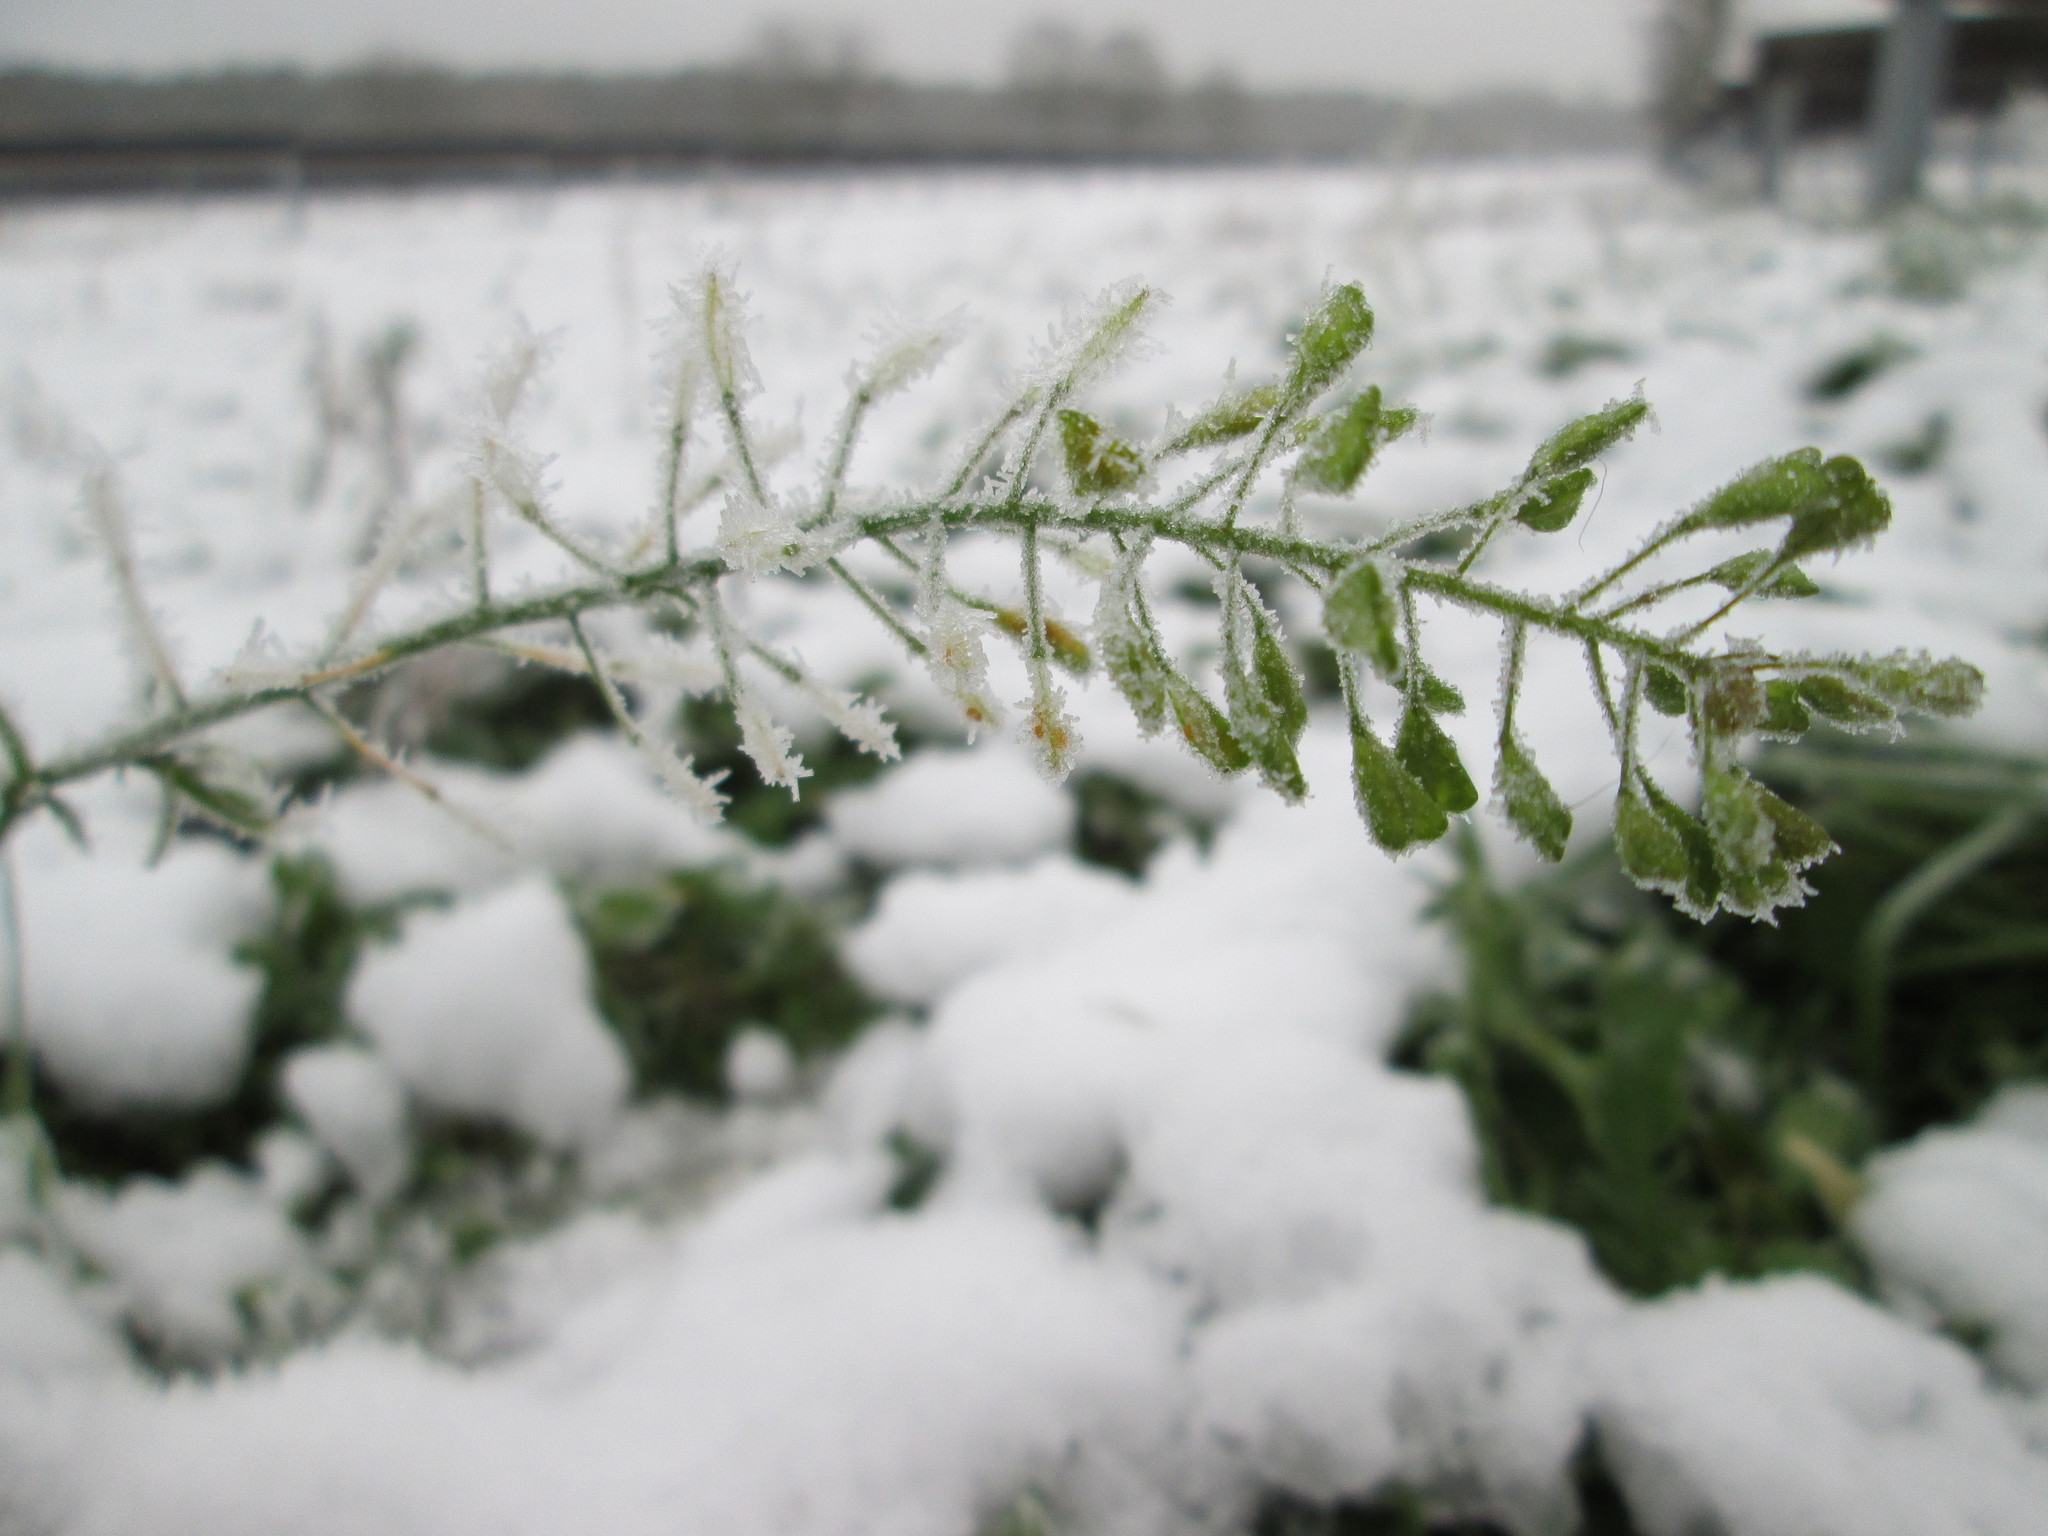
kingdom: Plantae
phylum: Tracheophyta
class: Magnoliopsida
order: Brassicales
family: Brassicaceae
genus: Capsella
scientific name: Capsella bursa-pastoris
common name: Shepherd's purse
